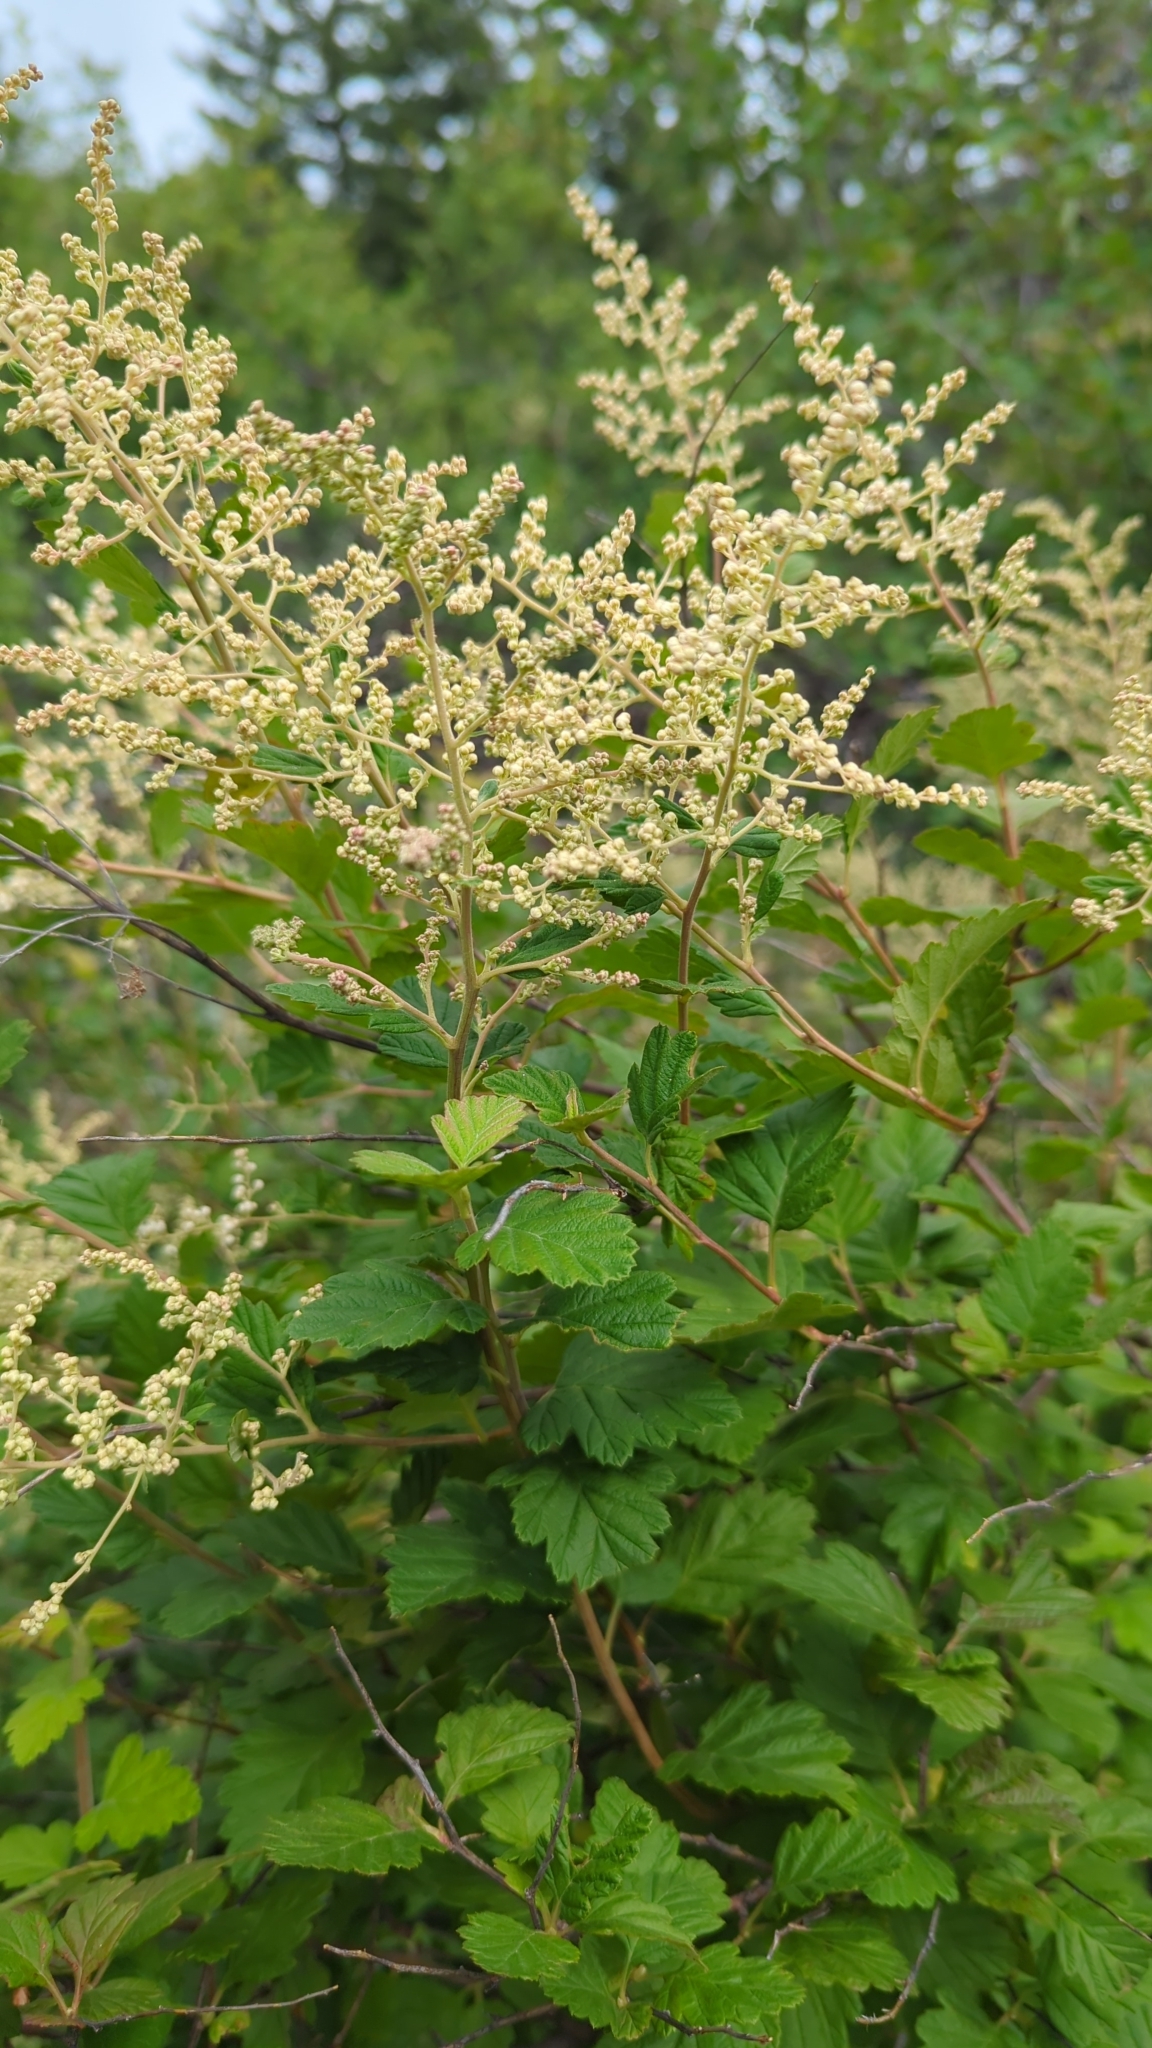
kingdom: Plantae
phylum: Tracheophyta
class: Magnoliopsida
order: Rosales
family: Rosaceae
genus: Holodiscus
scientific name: Holodiscus discolor
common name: Oceanspray
